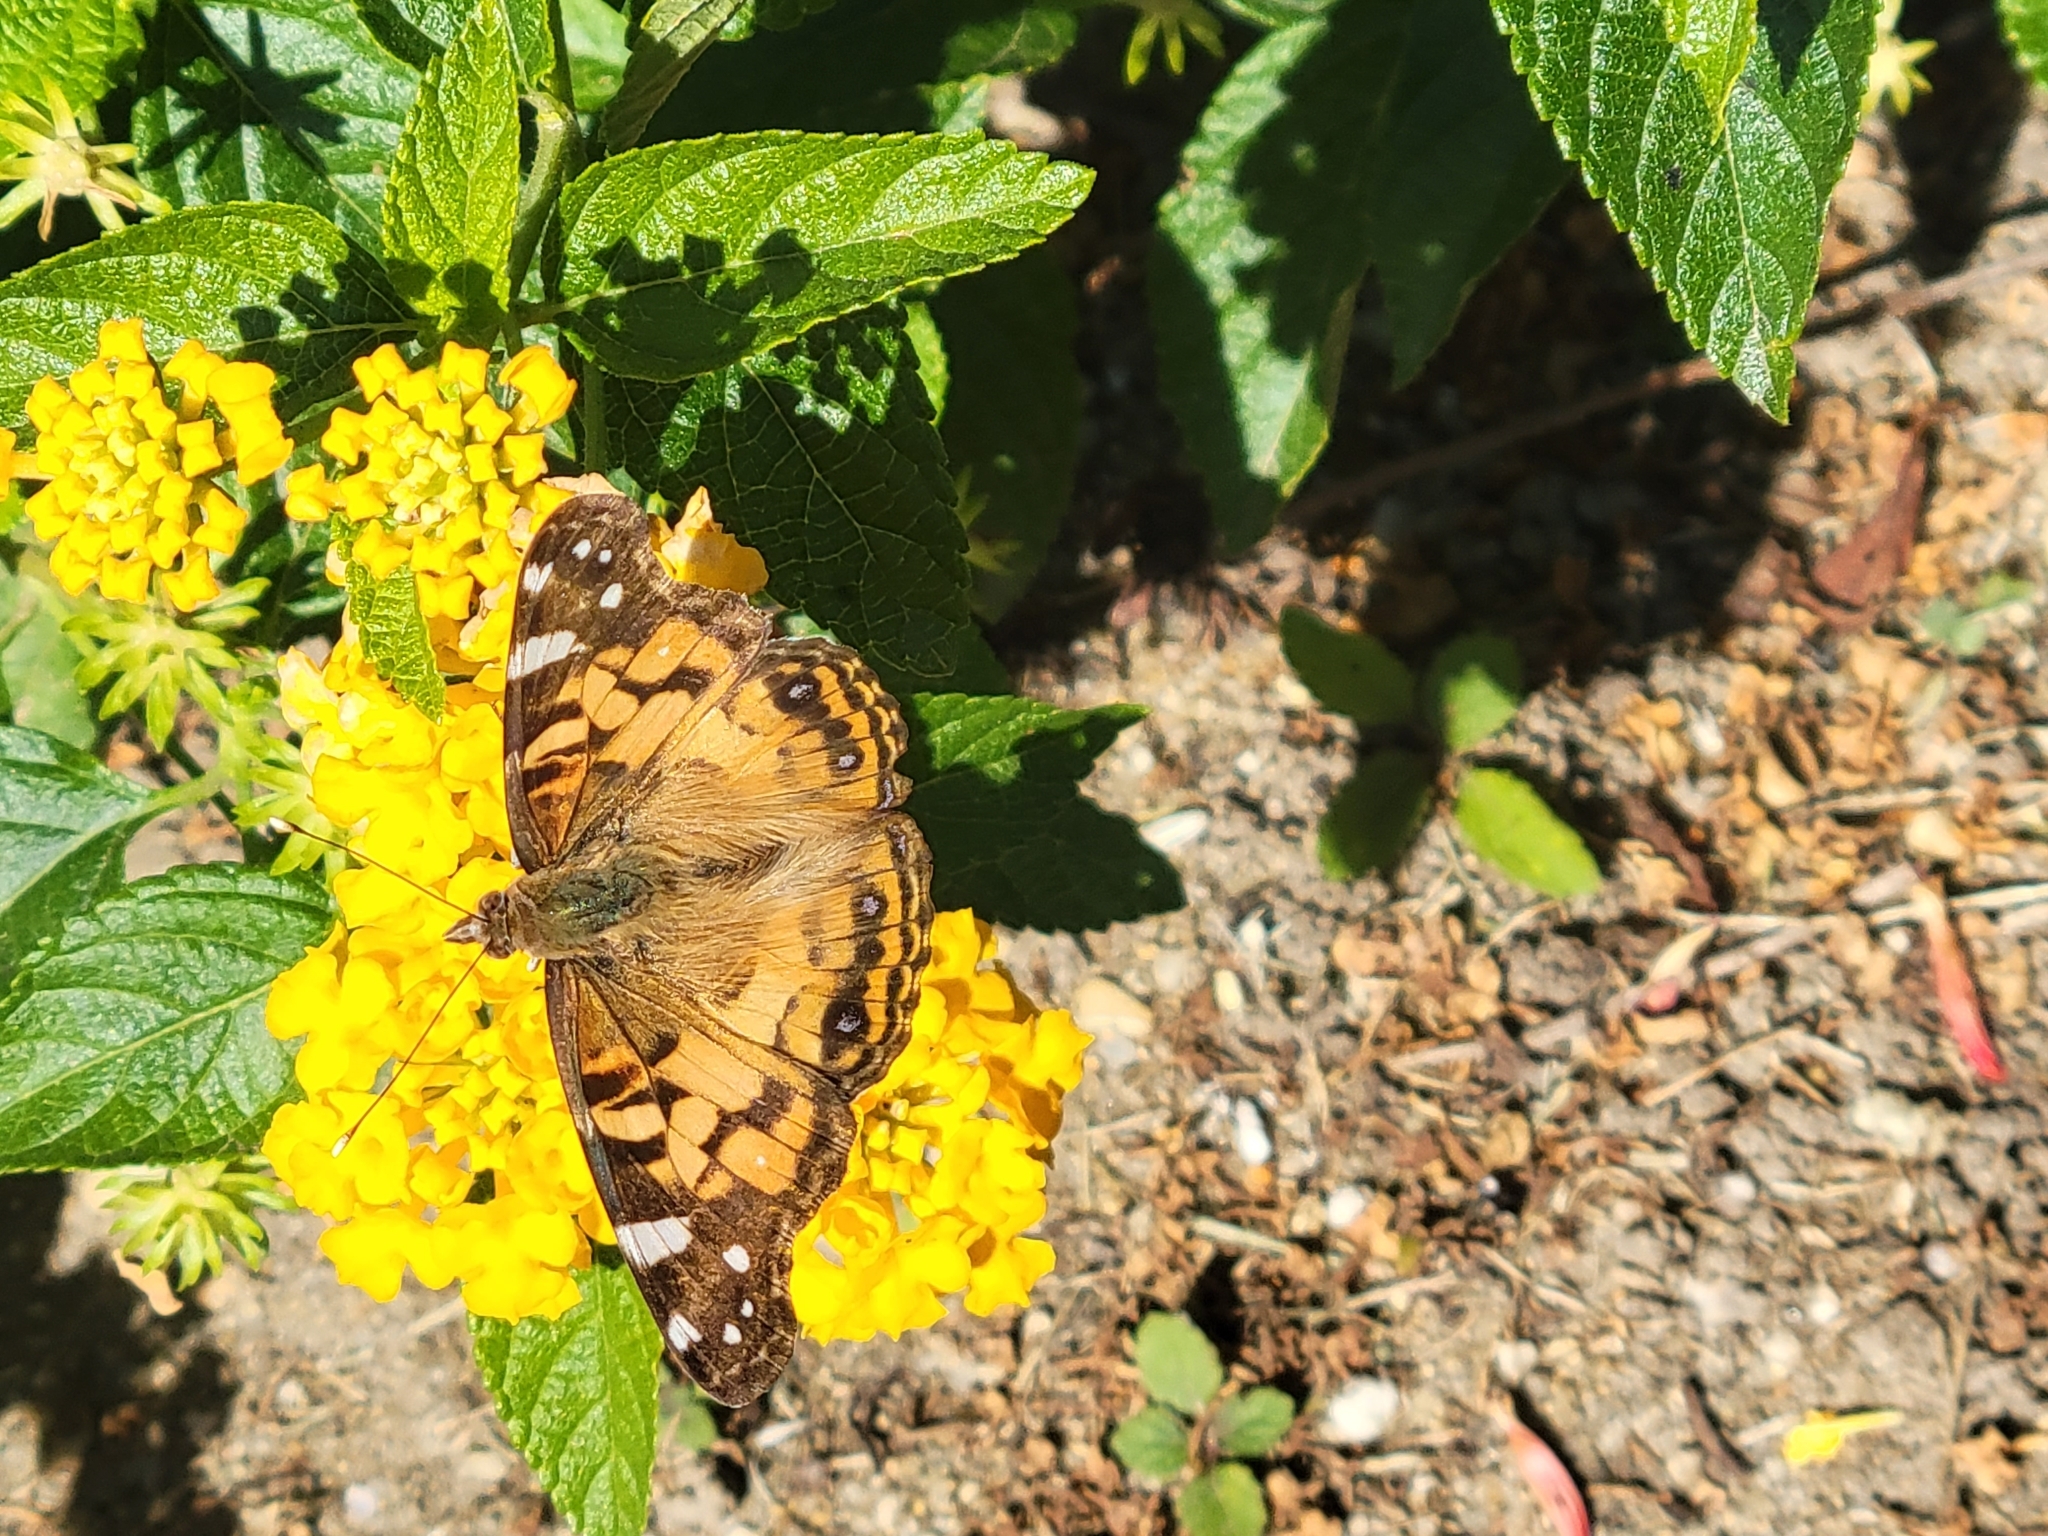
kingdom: Animalia
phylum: Arthropoda
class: Insecta
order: Lepidoptera
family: Nymphalidae
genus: Vanessa
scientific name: Vanessa virginiensis
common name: American lady
